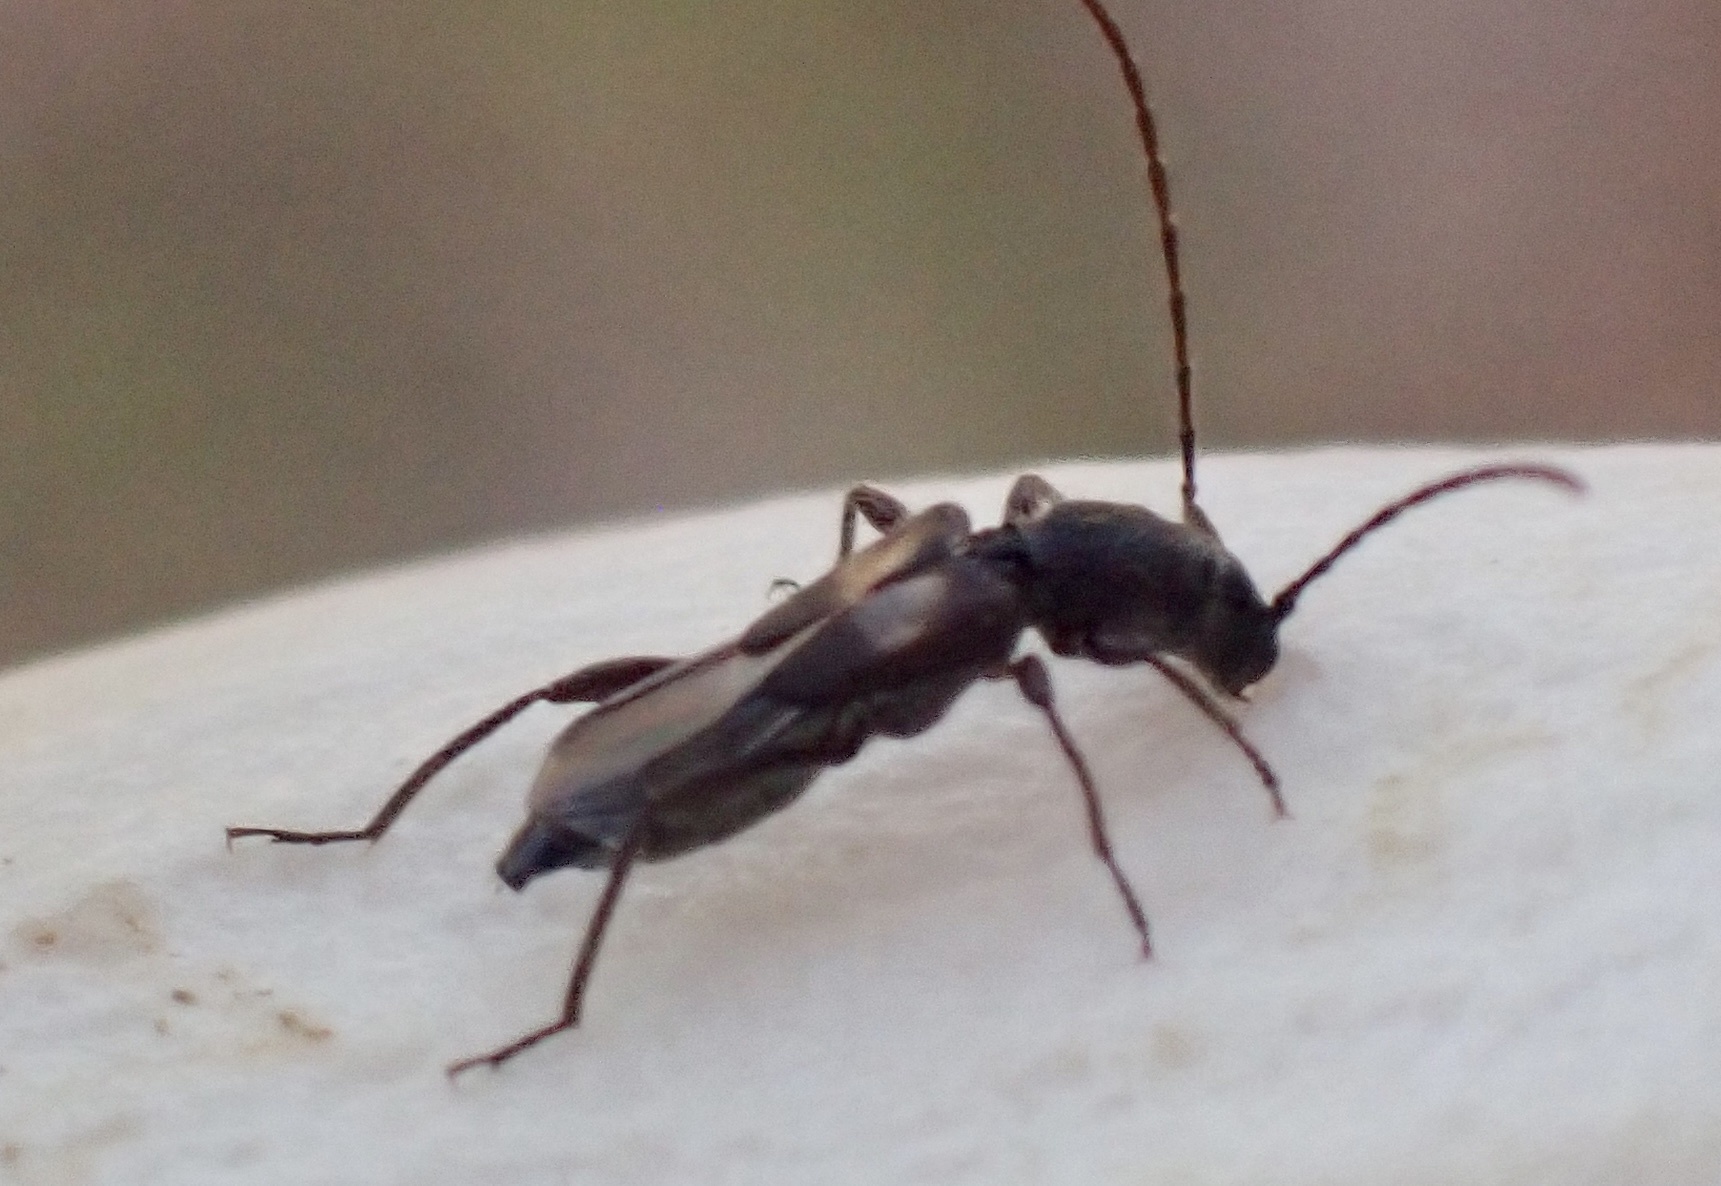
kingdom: Animalia
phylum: Arthropoda
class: Insecta
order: Coleoptera
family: Cerambycidae
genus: Molorchus
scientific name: Molorchus bimaculatus
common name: Bimaculate longhorn beetle
